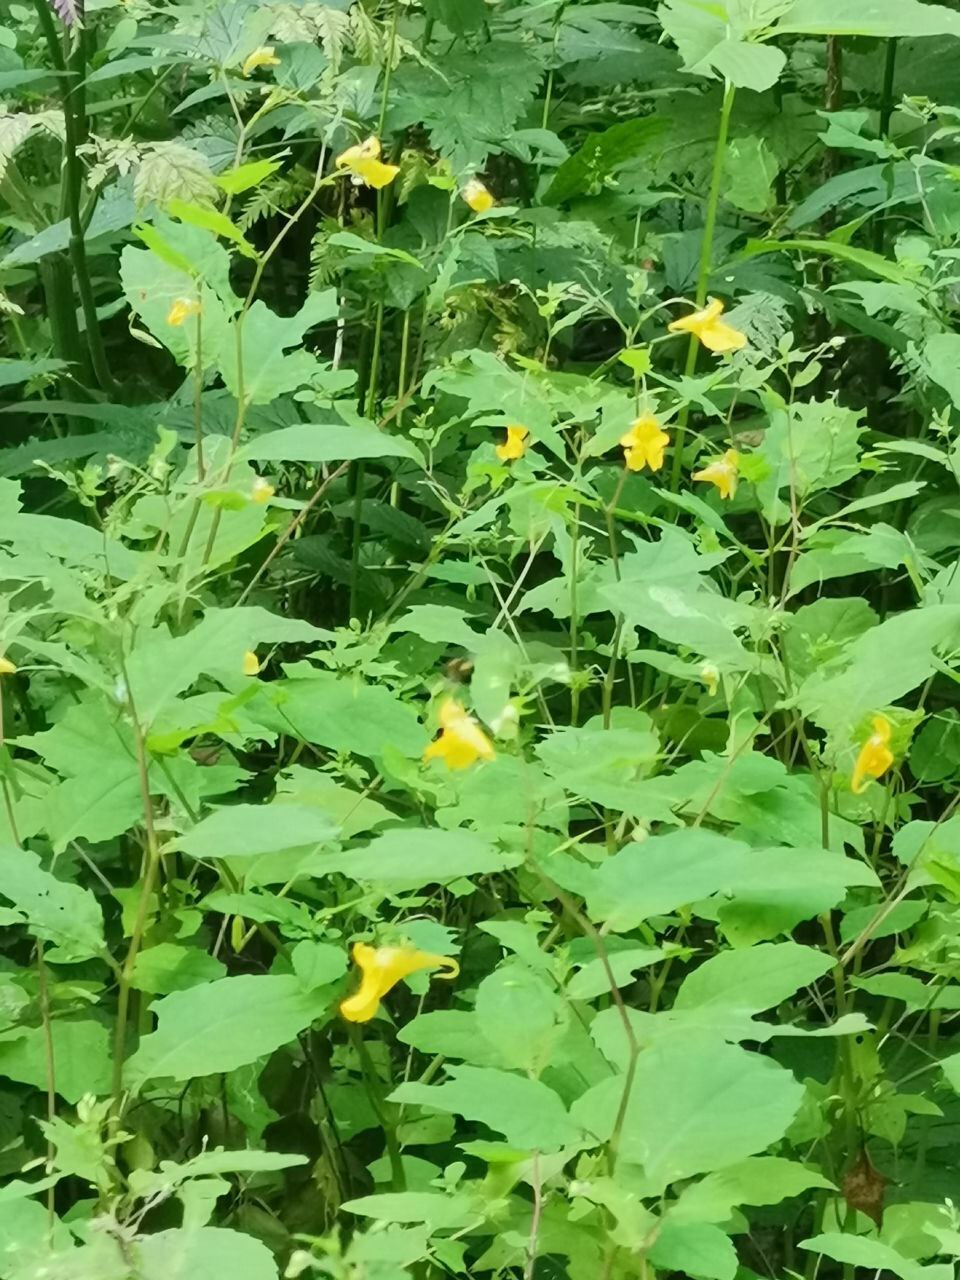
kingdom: Plantae
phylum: Tracheophyta
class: Magnoliopsida
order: Ericales
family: Balsaminaceae
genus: Impatiens
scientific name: Impatiens noli-tangere
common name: Touch-me-not balsam
